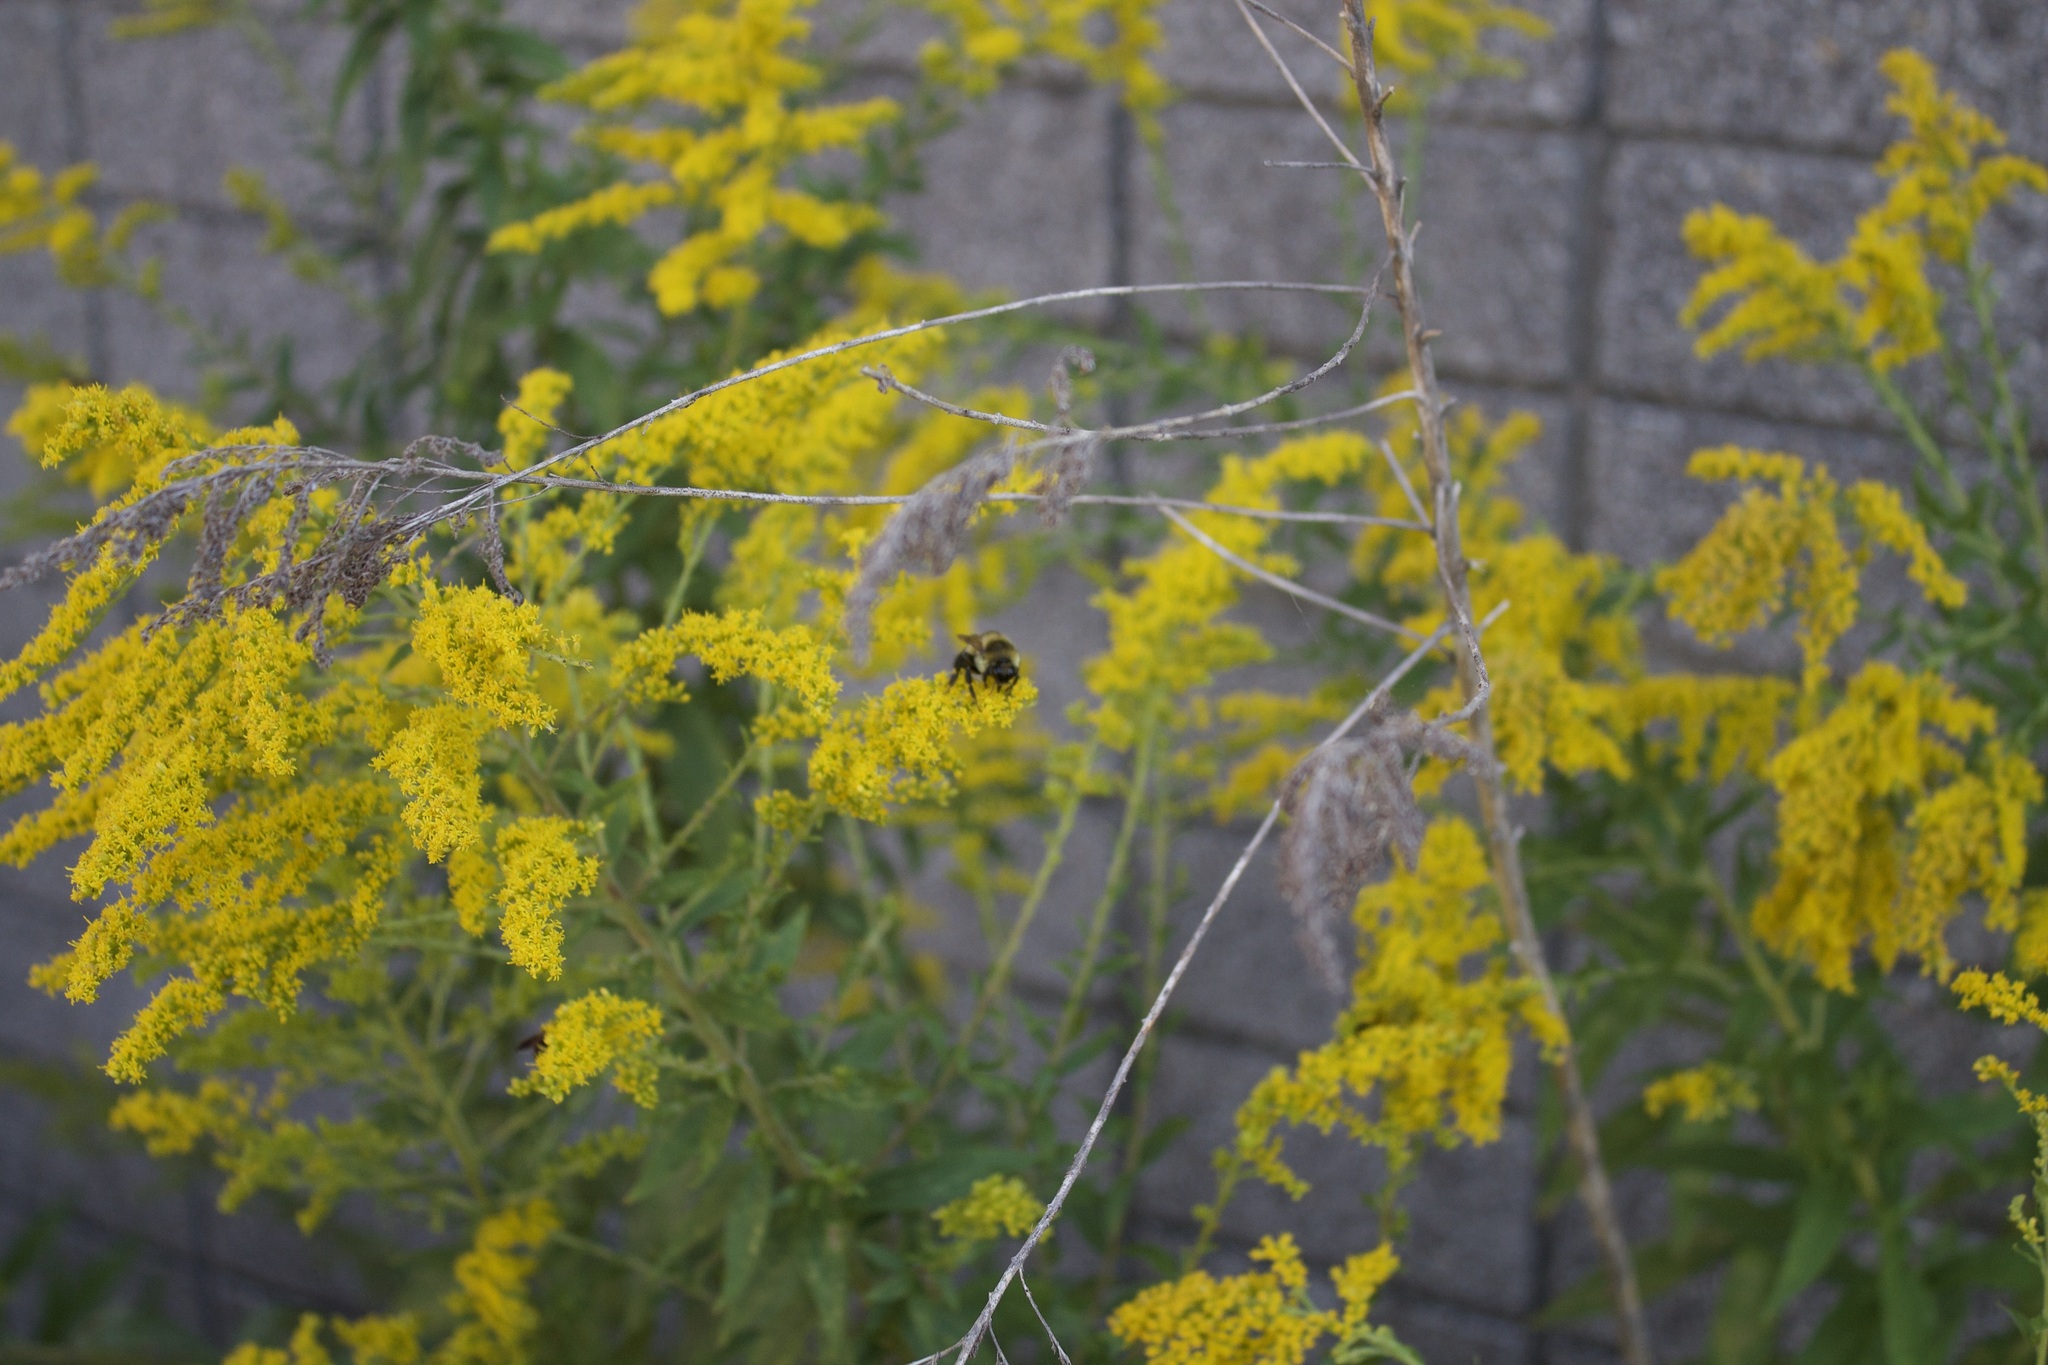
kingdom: Animalia
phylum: Arthropoda
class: Insecta
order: Hymenoptera
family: Apidae
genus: Bombus
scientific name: Bombus rufocinctus
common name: Red-belted bumble bee
